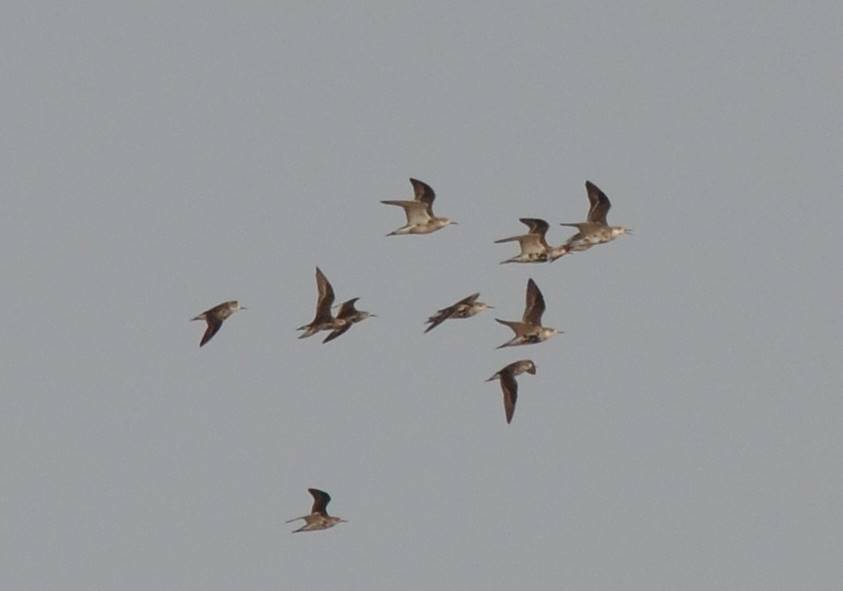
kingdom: Animalia
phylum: Chordata
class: Aves
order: Charadriiformes
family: Scolopacidae
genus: Calidris
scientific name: Calidris pugnax
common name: Ruff
